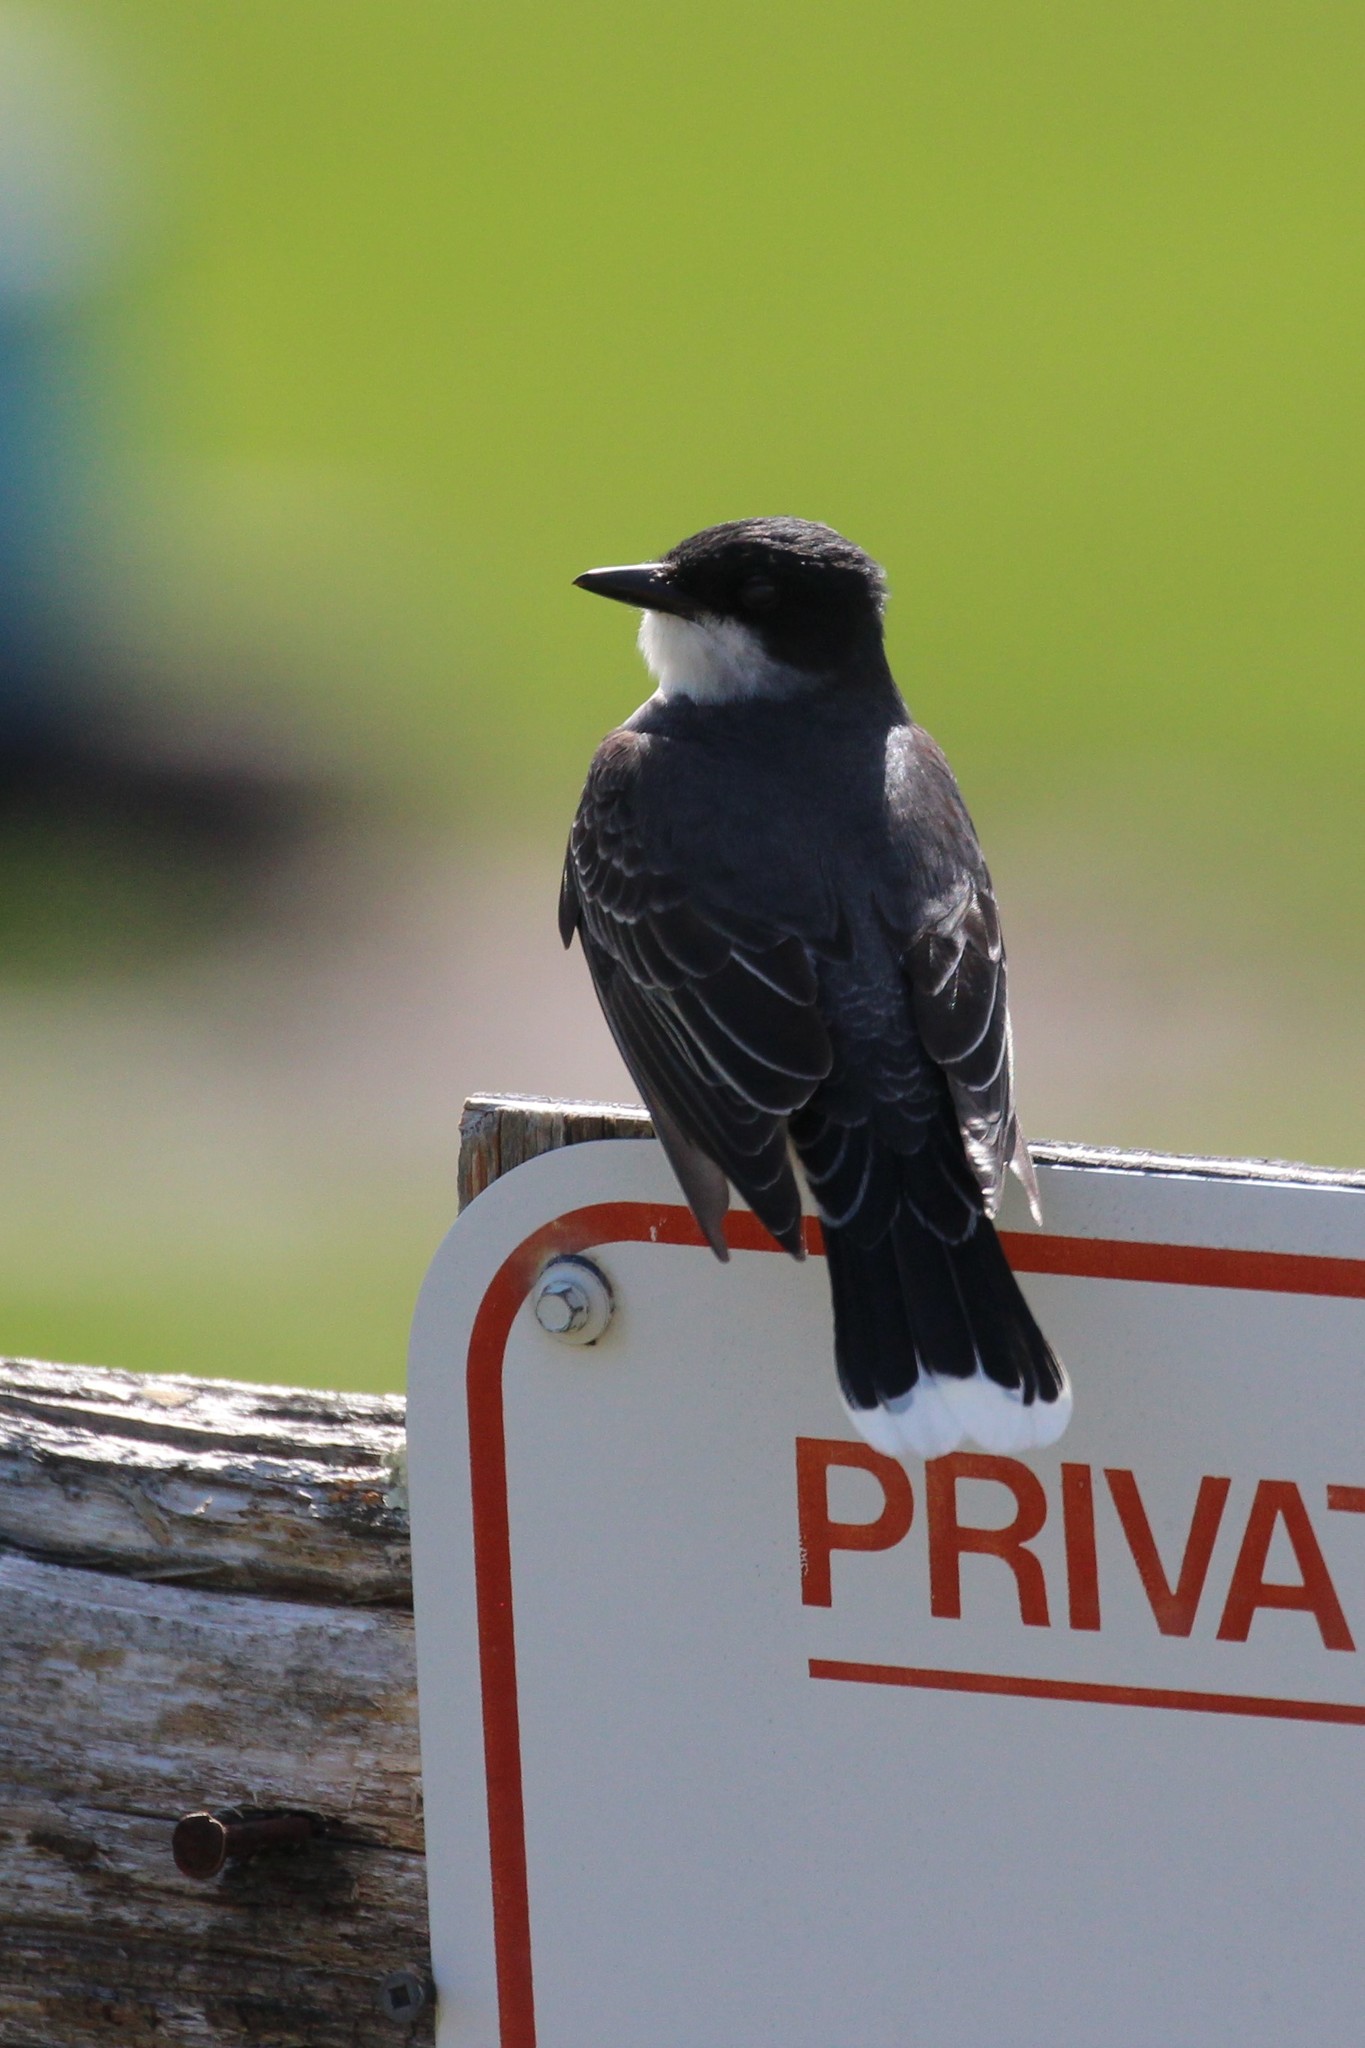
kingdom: Animalia
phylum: Chordata
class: Aves
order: Passeriformes
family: Tyrannidae
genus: Tyrannus
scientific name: Tyrannus tyrannus
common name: Eastern kingbird
